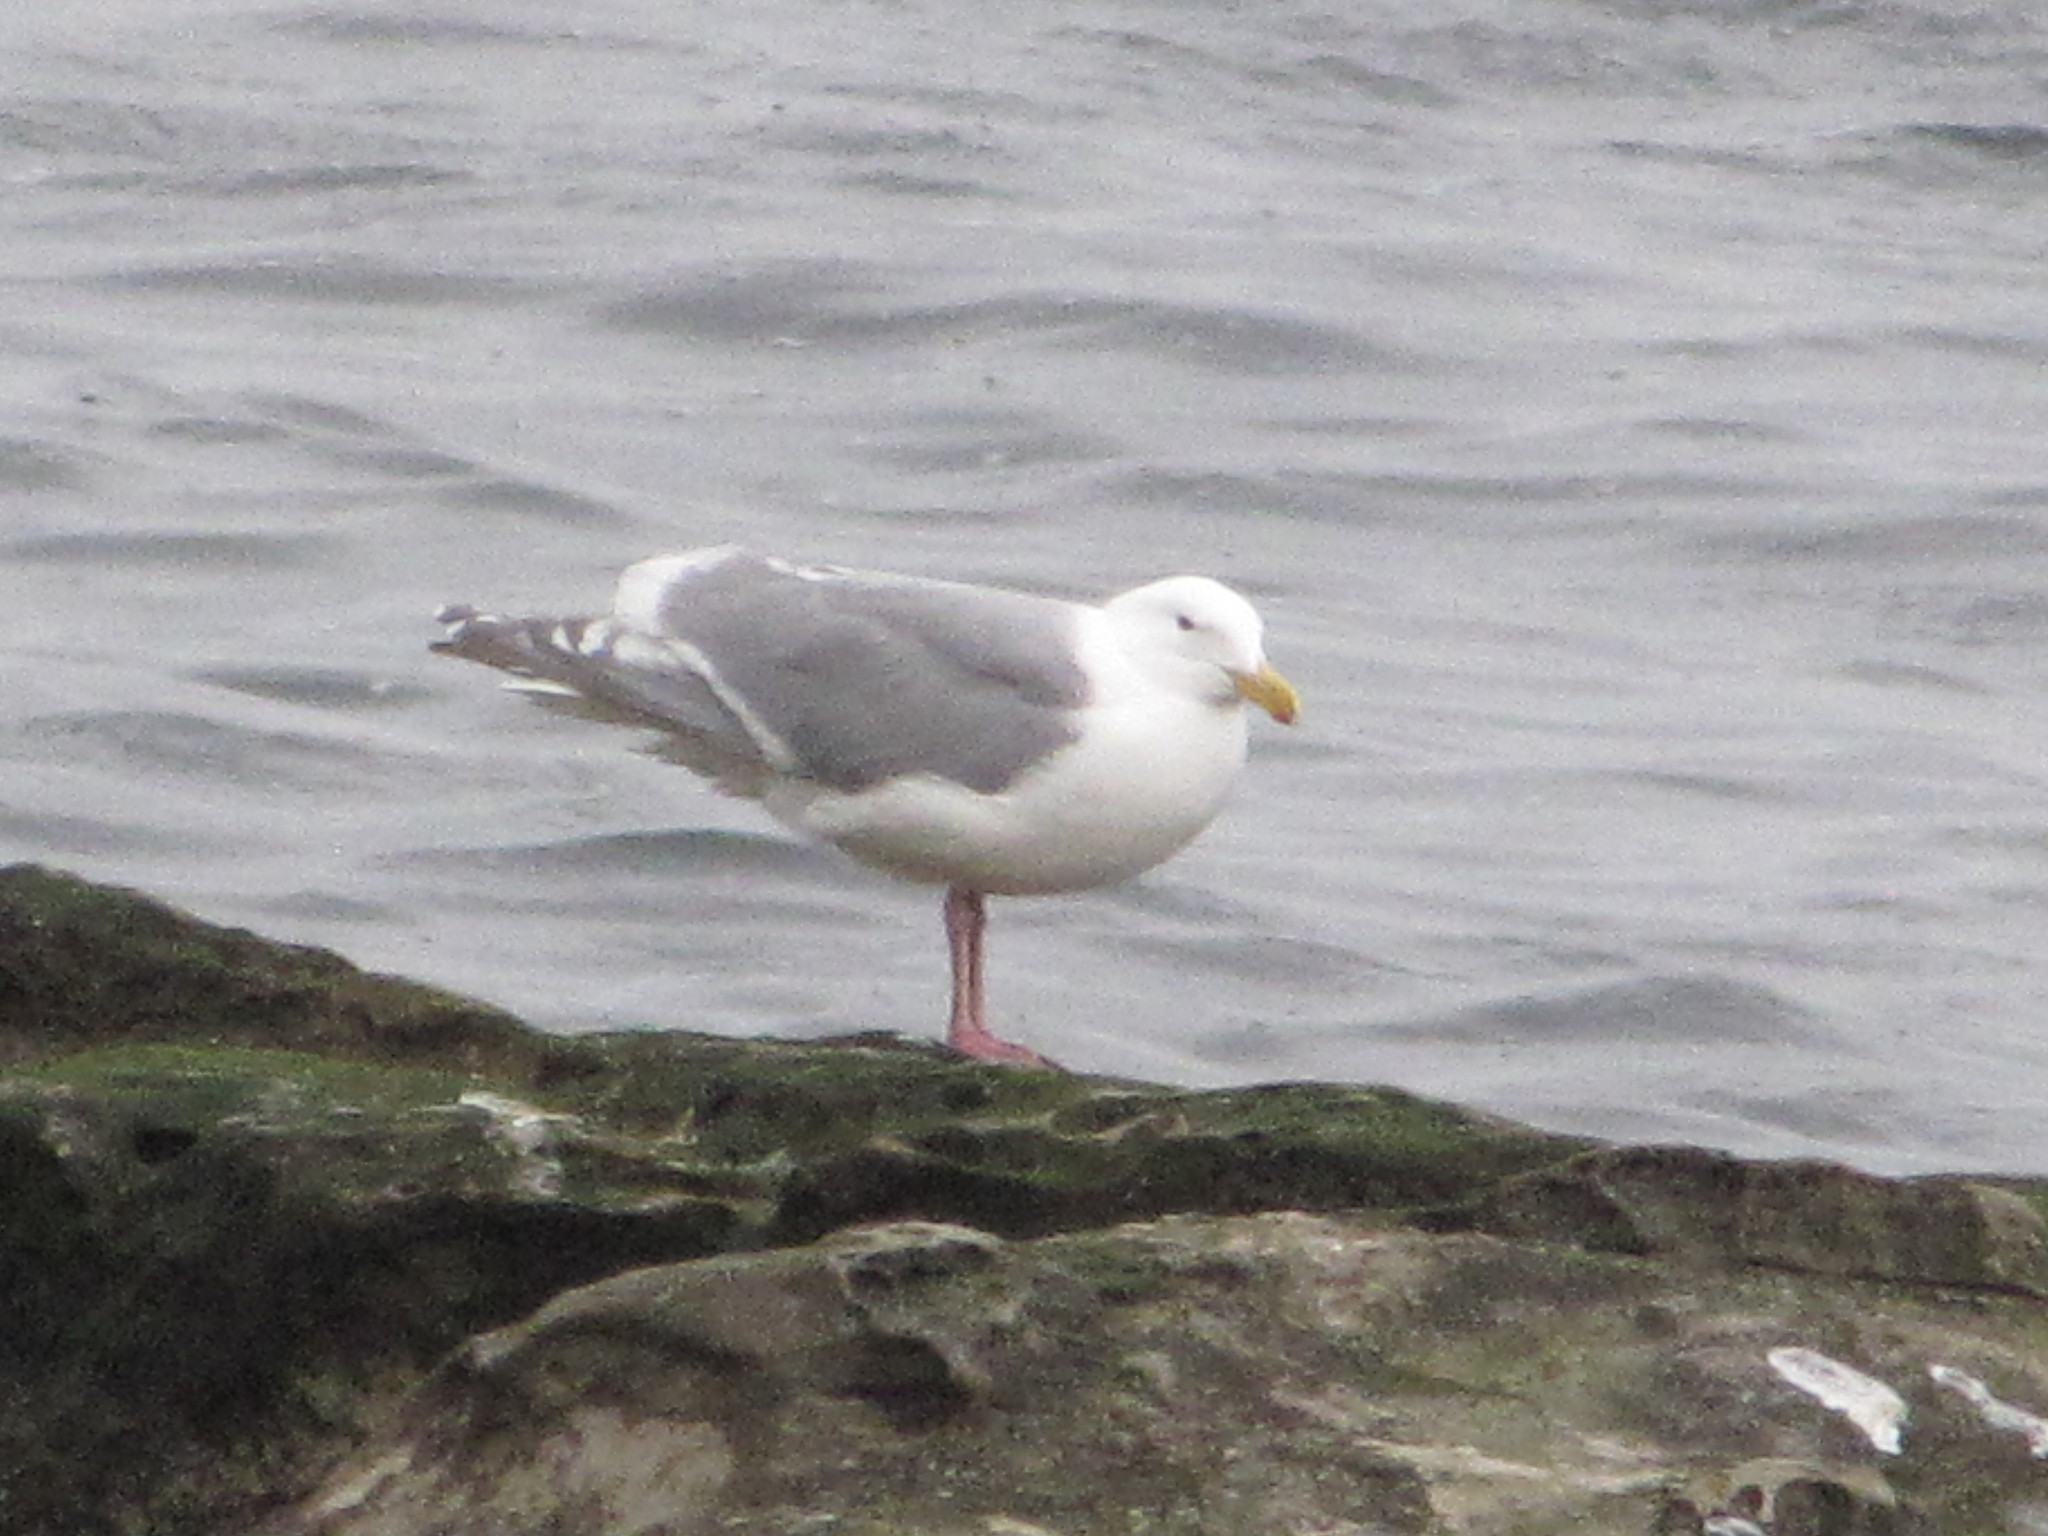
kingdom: Animalia
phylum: Chordata
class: Aves
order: Charadriiformes
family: Laridae
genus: Larus
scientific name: Larus glaucescens
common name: Glaucous-winged gull
